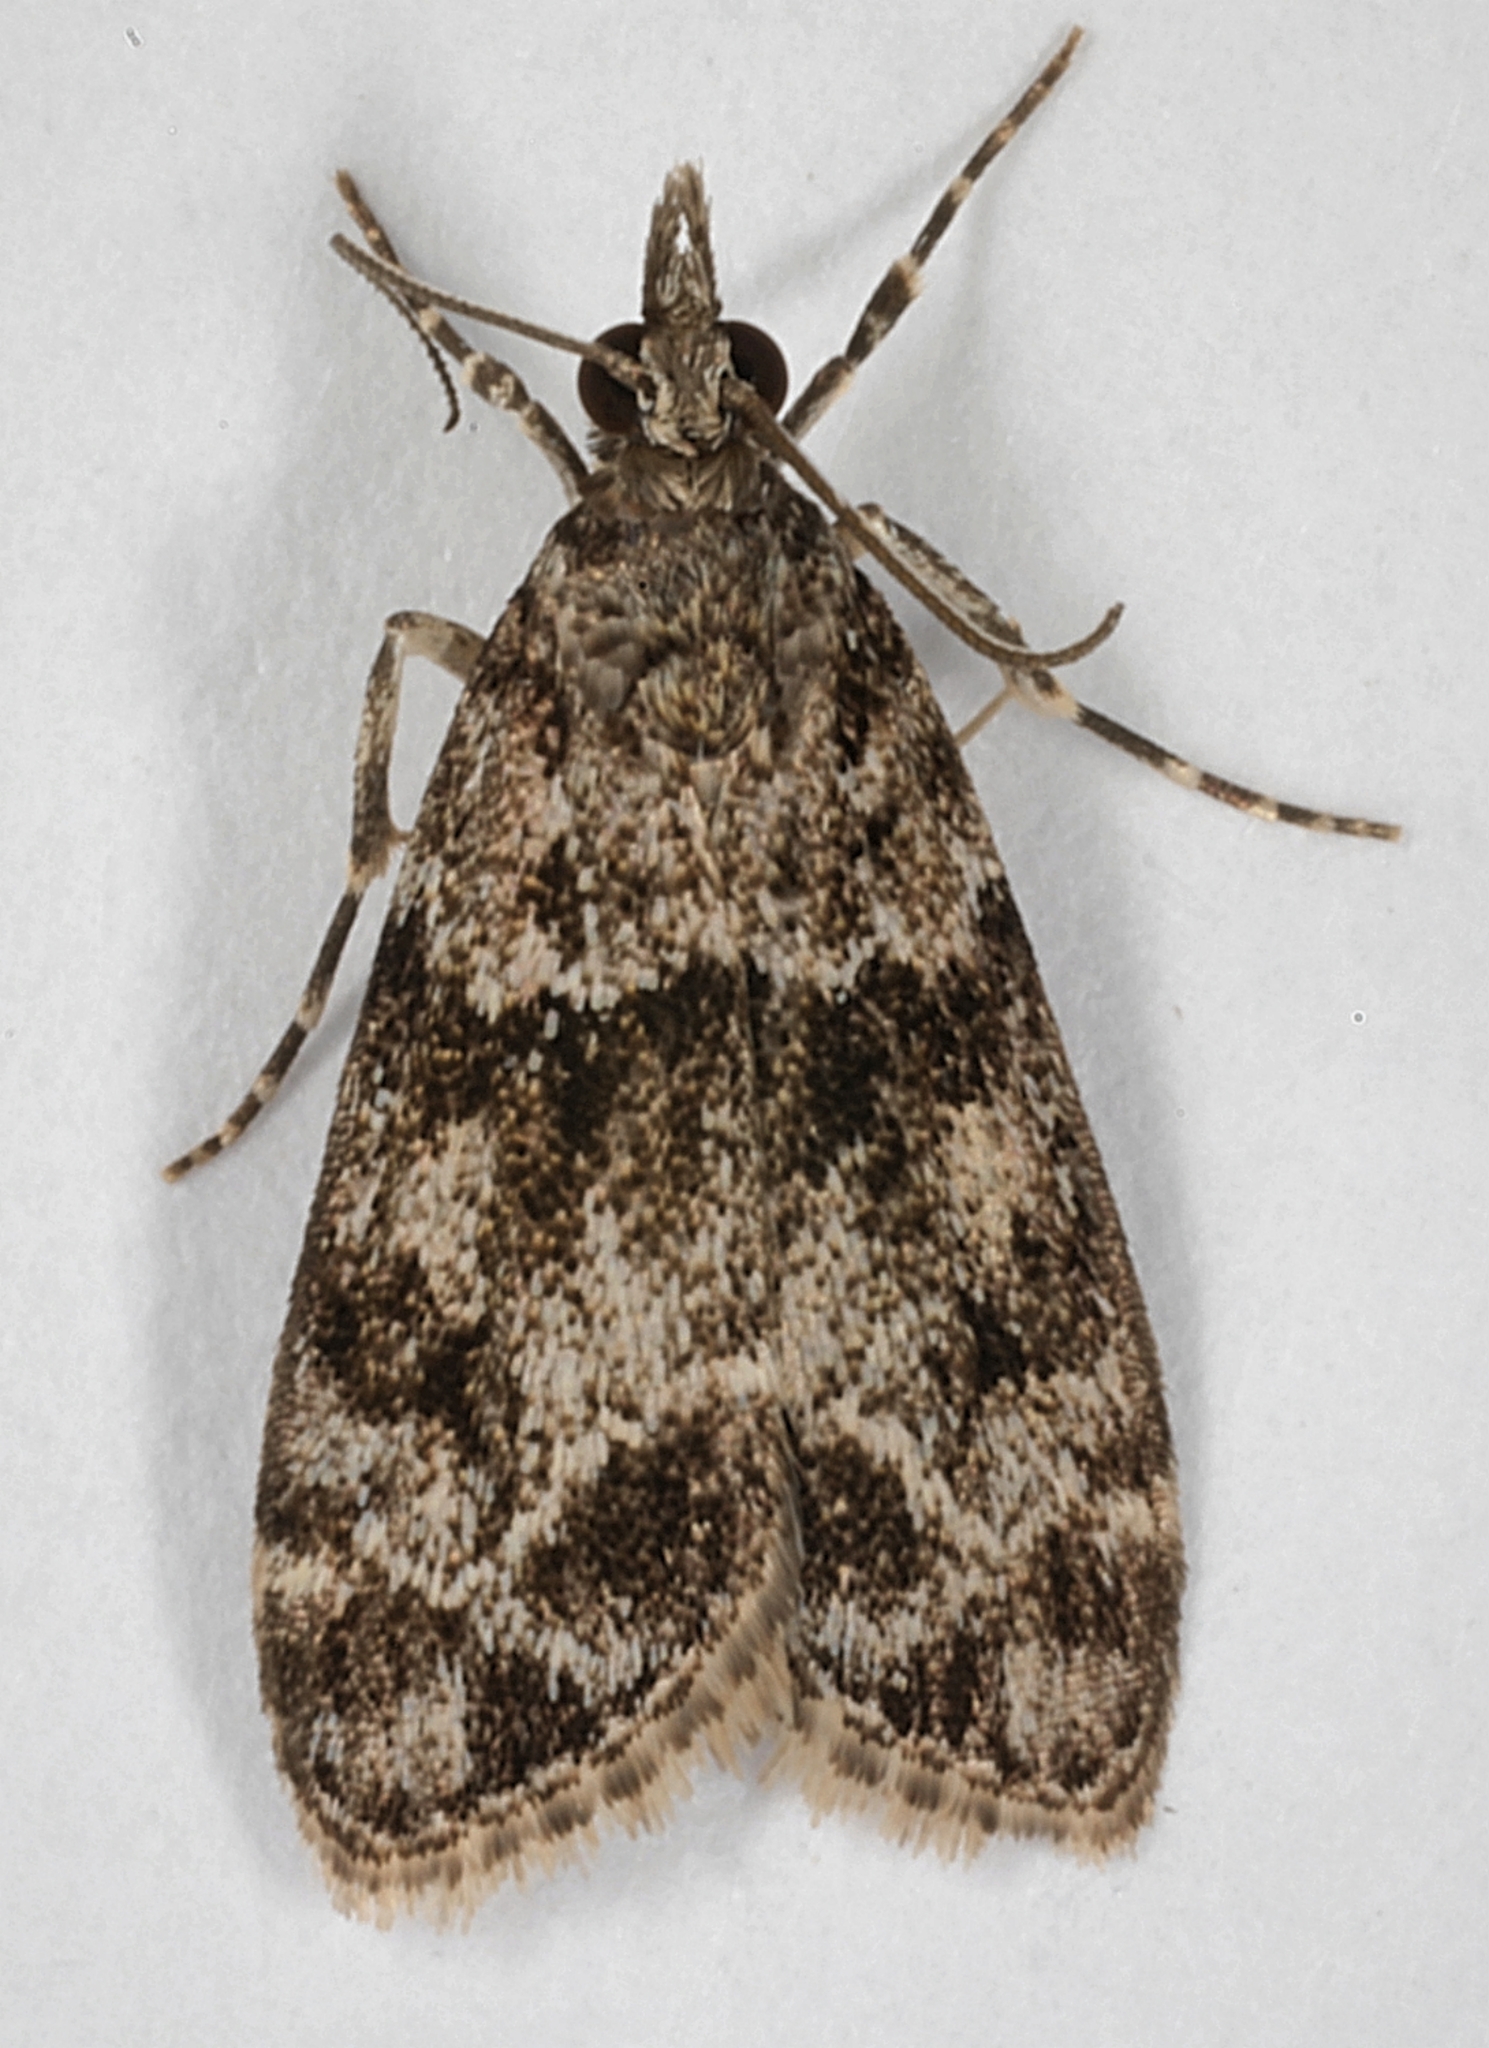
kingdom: Animalia
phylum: Arthropoda
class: Insecta
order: Lepidoptera
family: Crambidae
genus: Eudonia
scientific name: Eudonia mercurella
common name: Small grey
